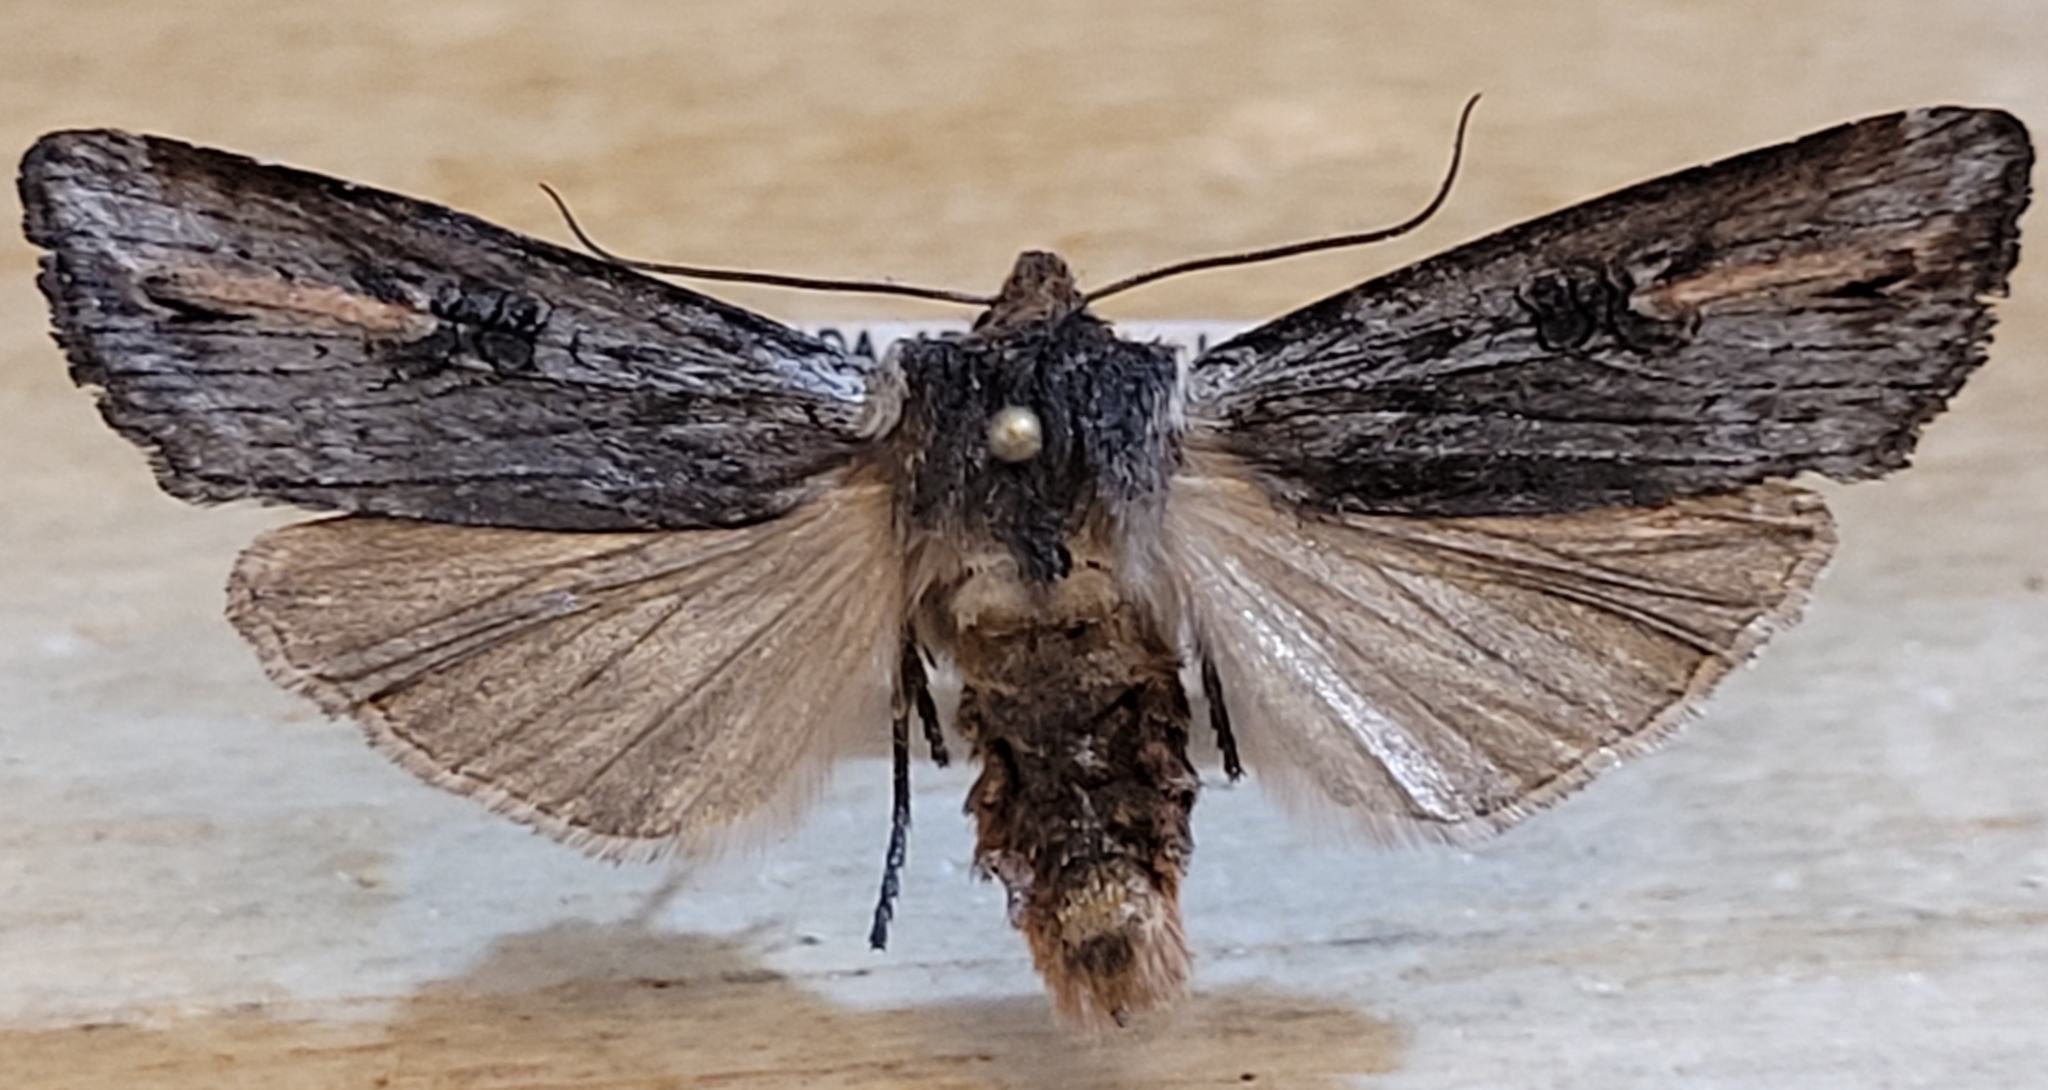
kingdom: Animalia
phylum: Arthropoda
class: Insecta
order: Lepidoptera
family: Noctuidae
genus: Xylena
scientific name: Xylena thoracica
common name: Acadian swordgrass moth
